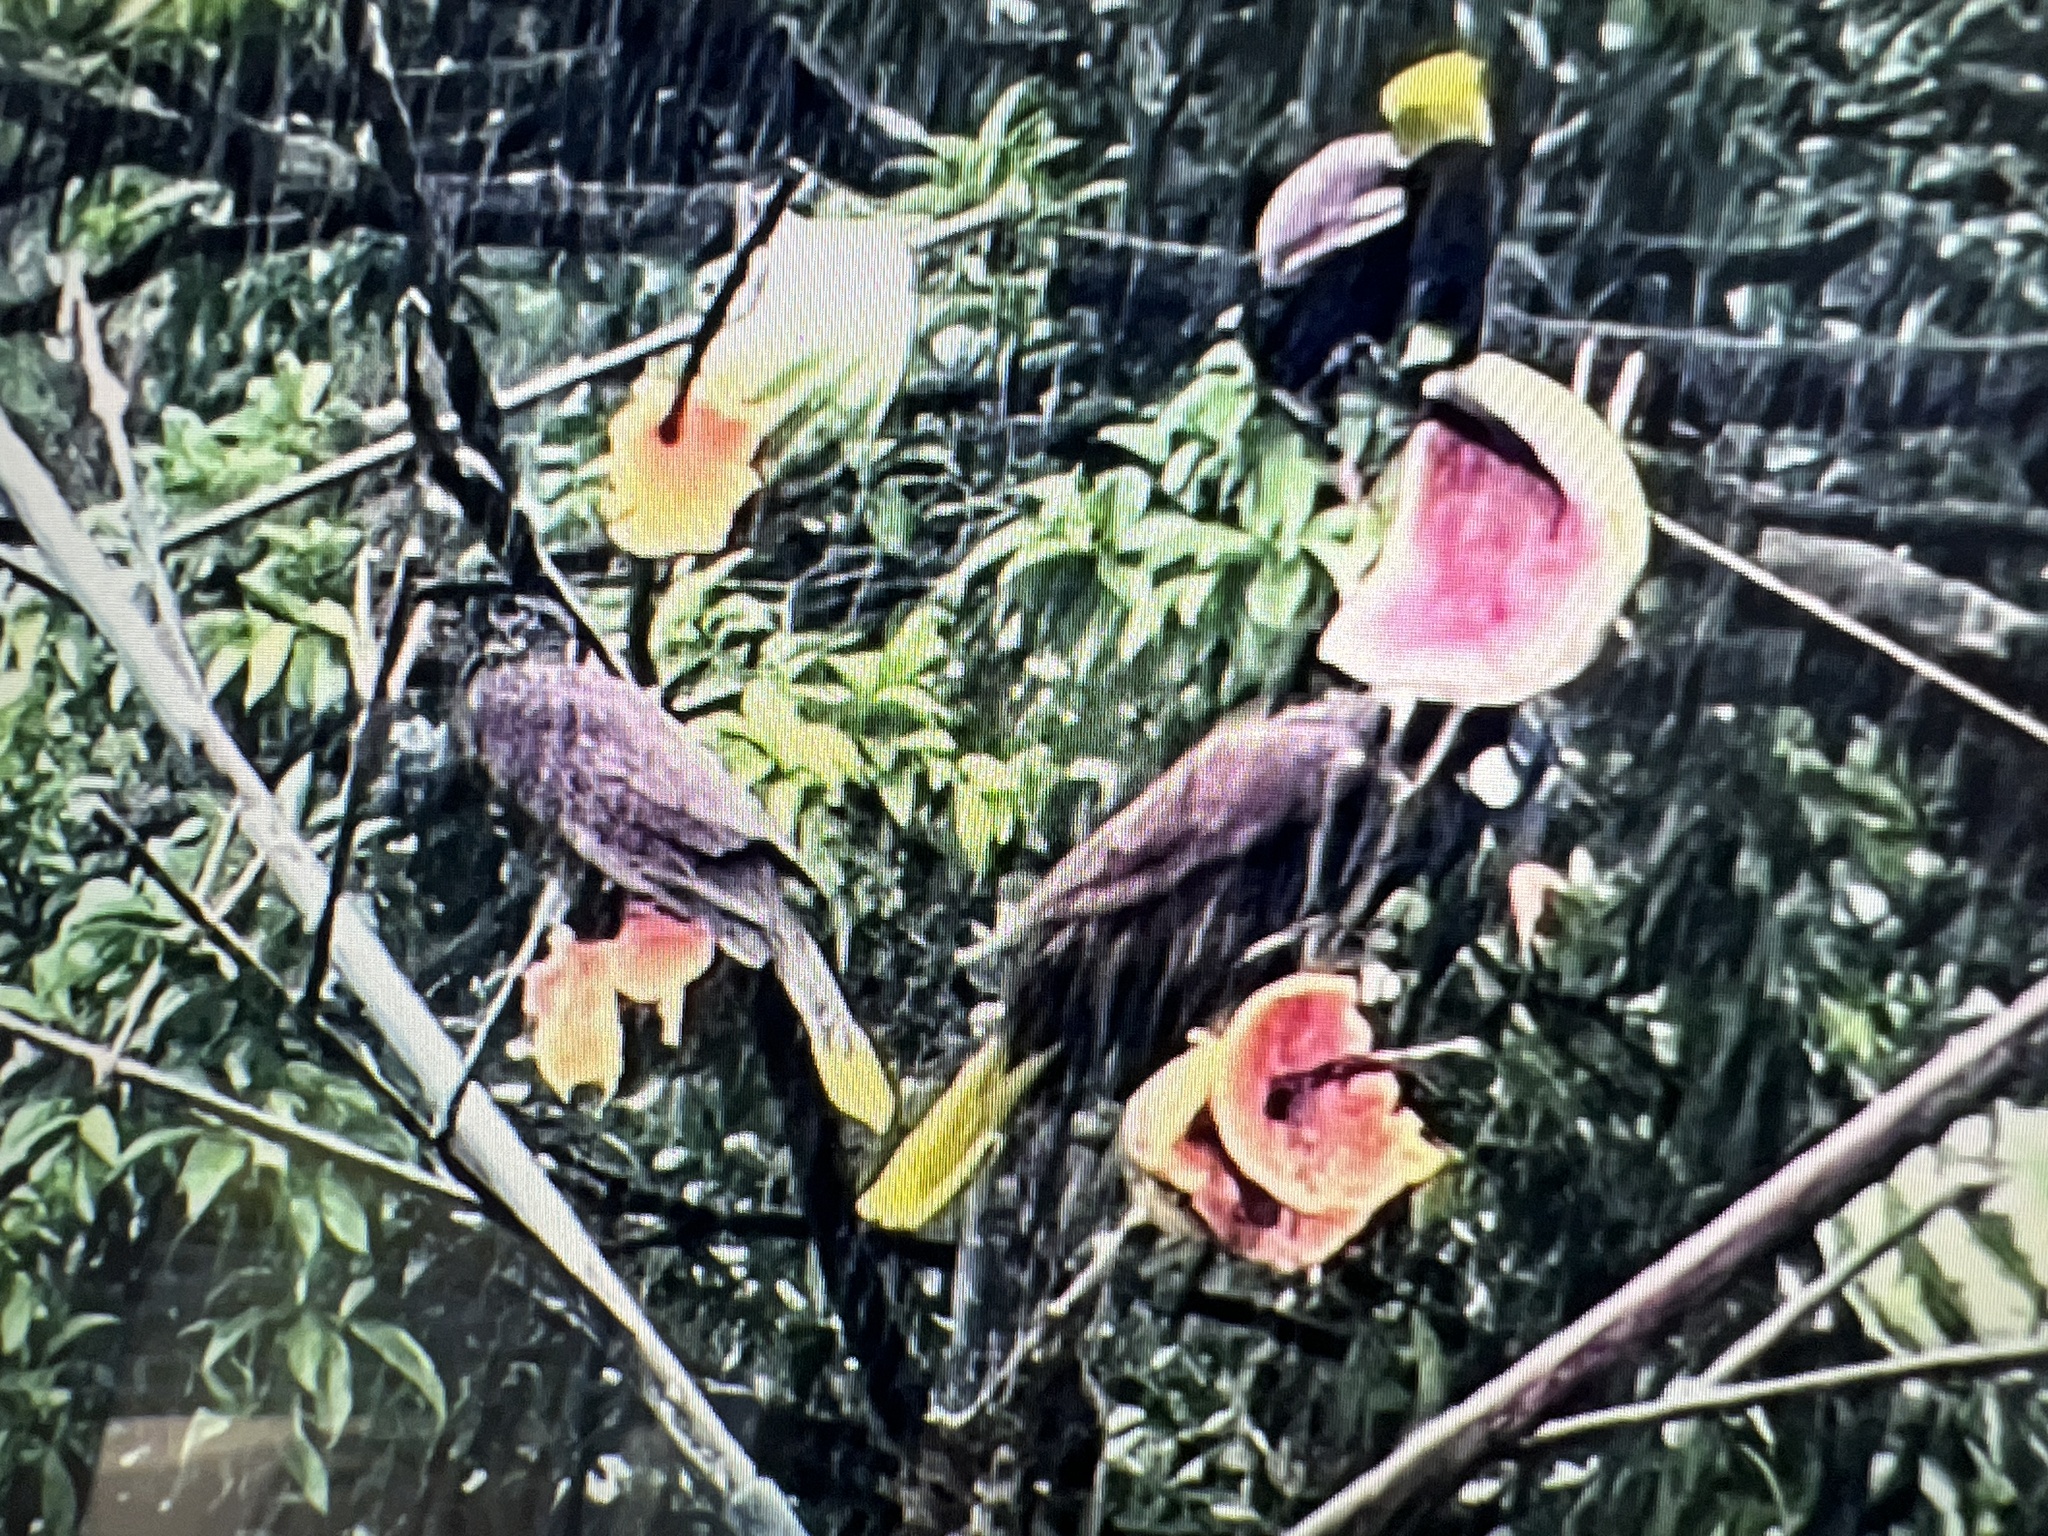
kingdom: Animalia
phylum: Chordata
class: Aves
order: Passeriformes
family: Icteridae
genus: Psarocolius
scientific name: Psarocolius montezuma
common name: Montezuma oropendola
